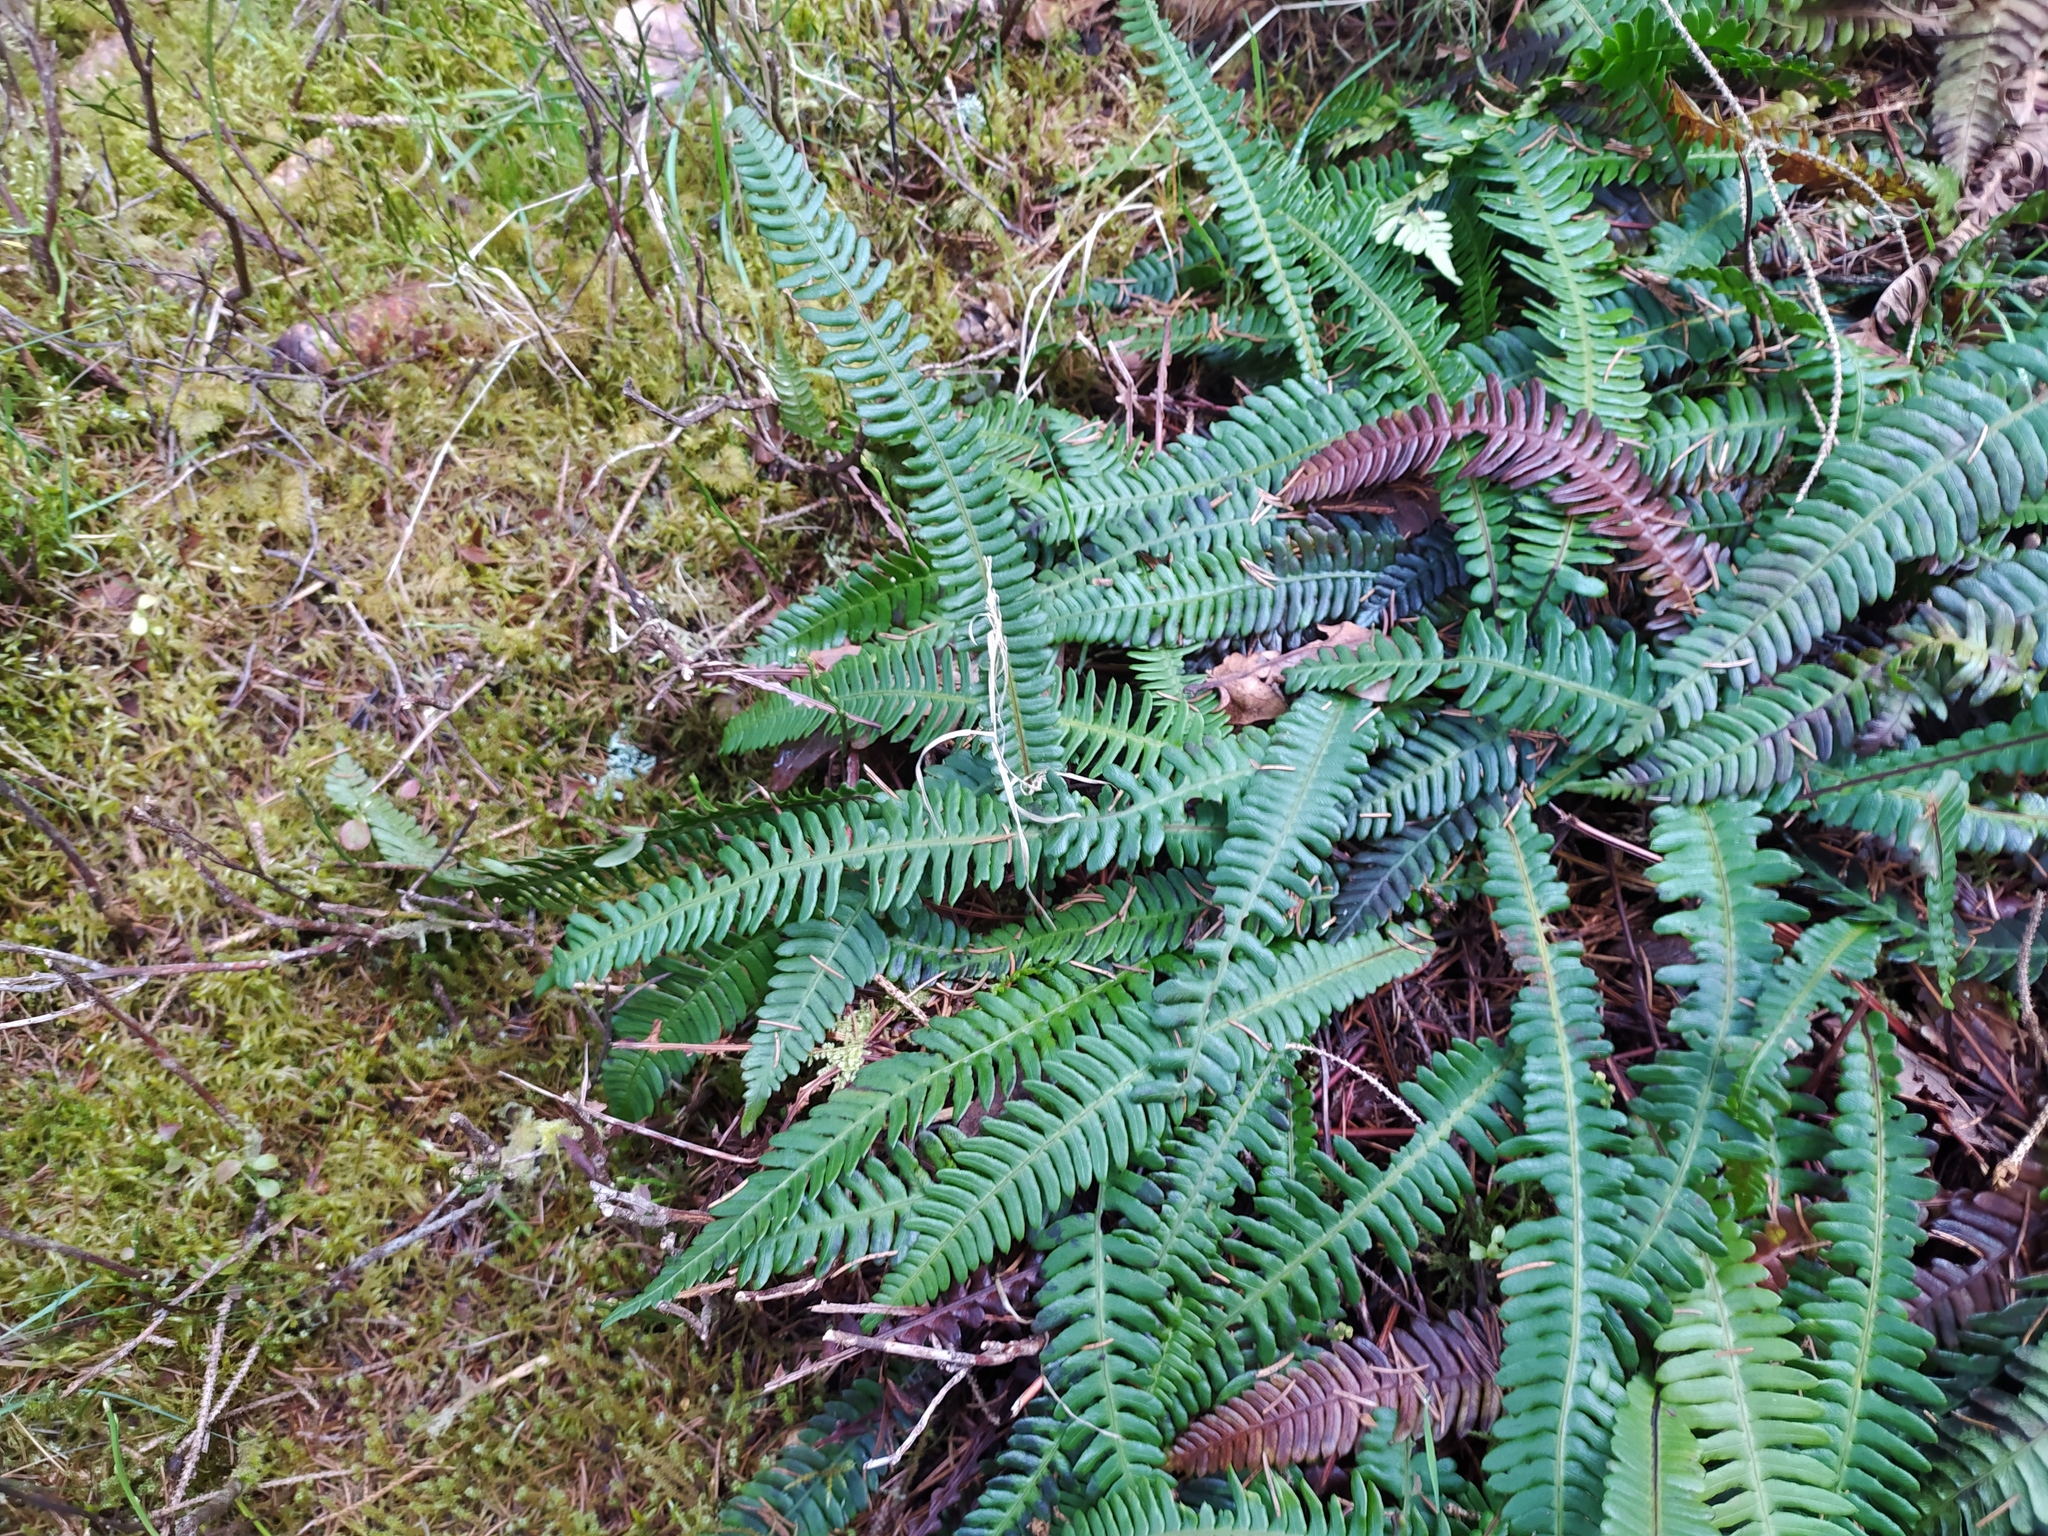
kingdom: Plantae
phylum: Tracheophyta
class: Polypodiopsida
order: Polypodiales
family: Blechnaceae
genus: Struthiopteris
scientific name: Struthiopteris spicant
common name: Deer fern
